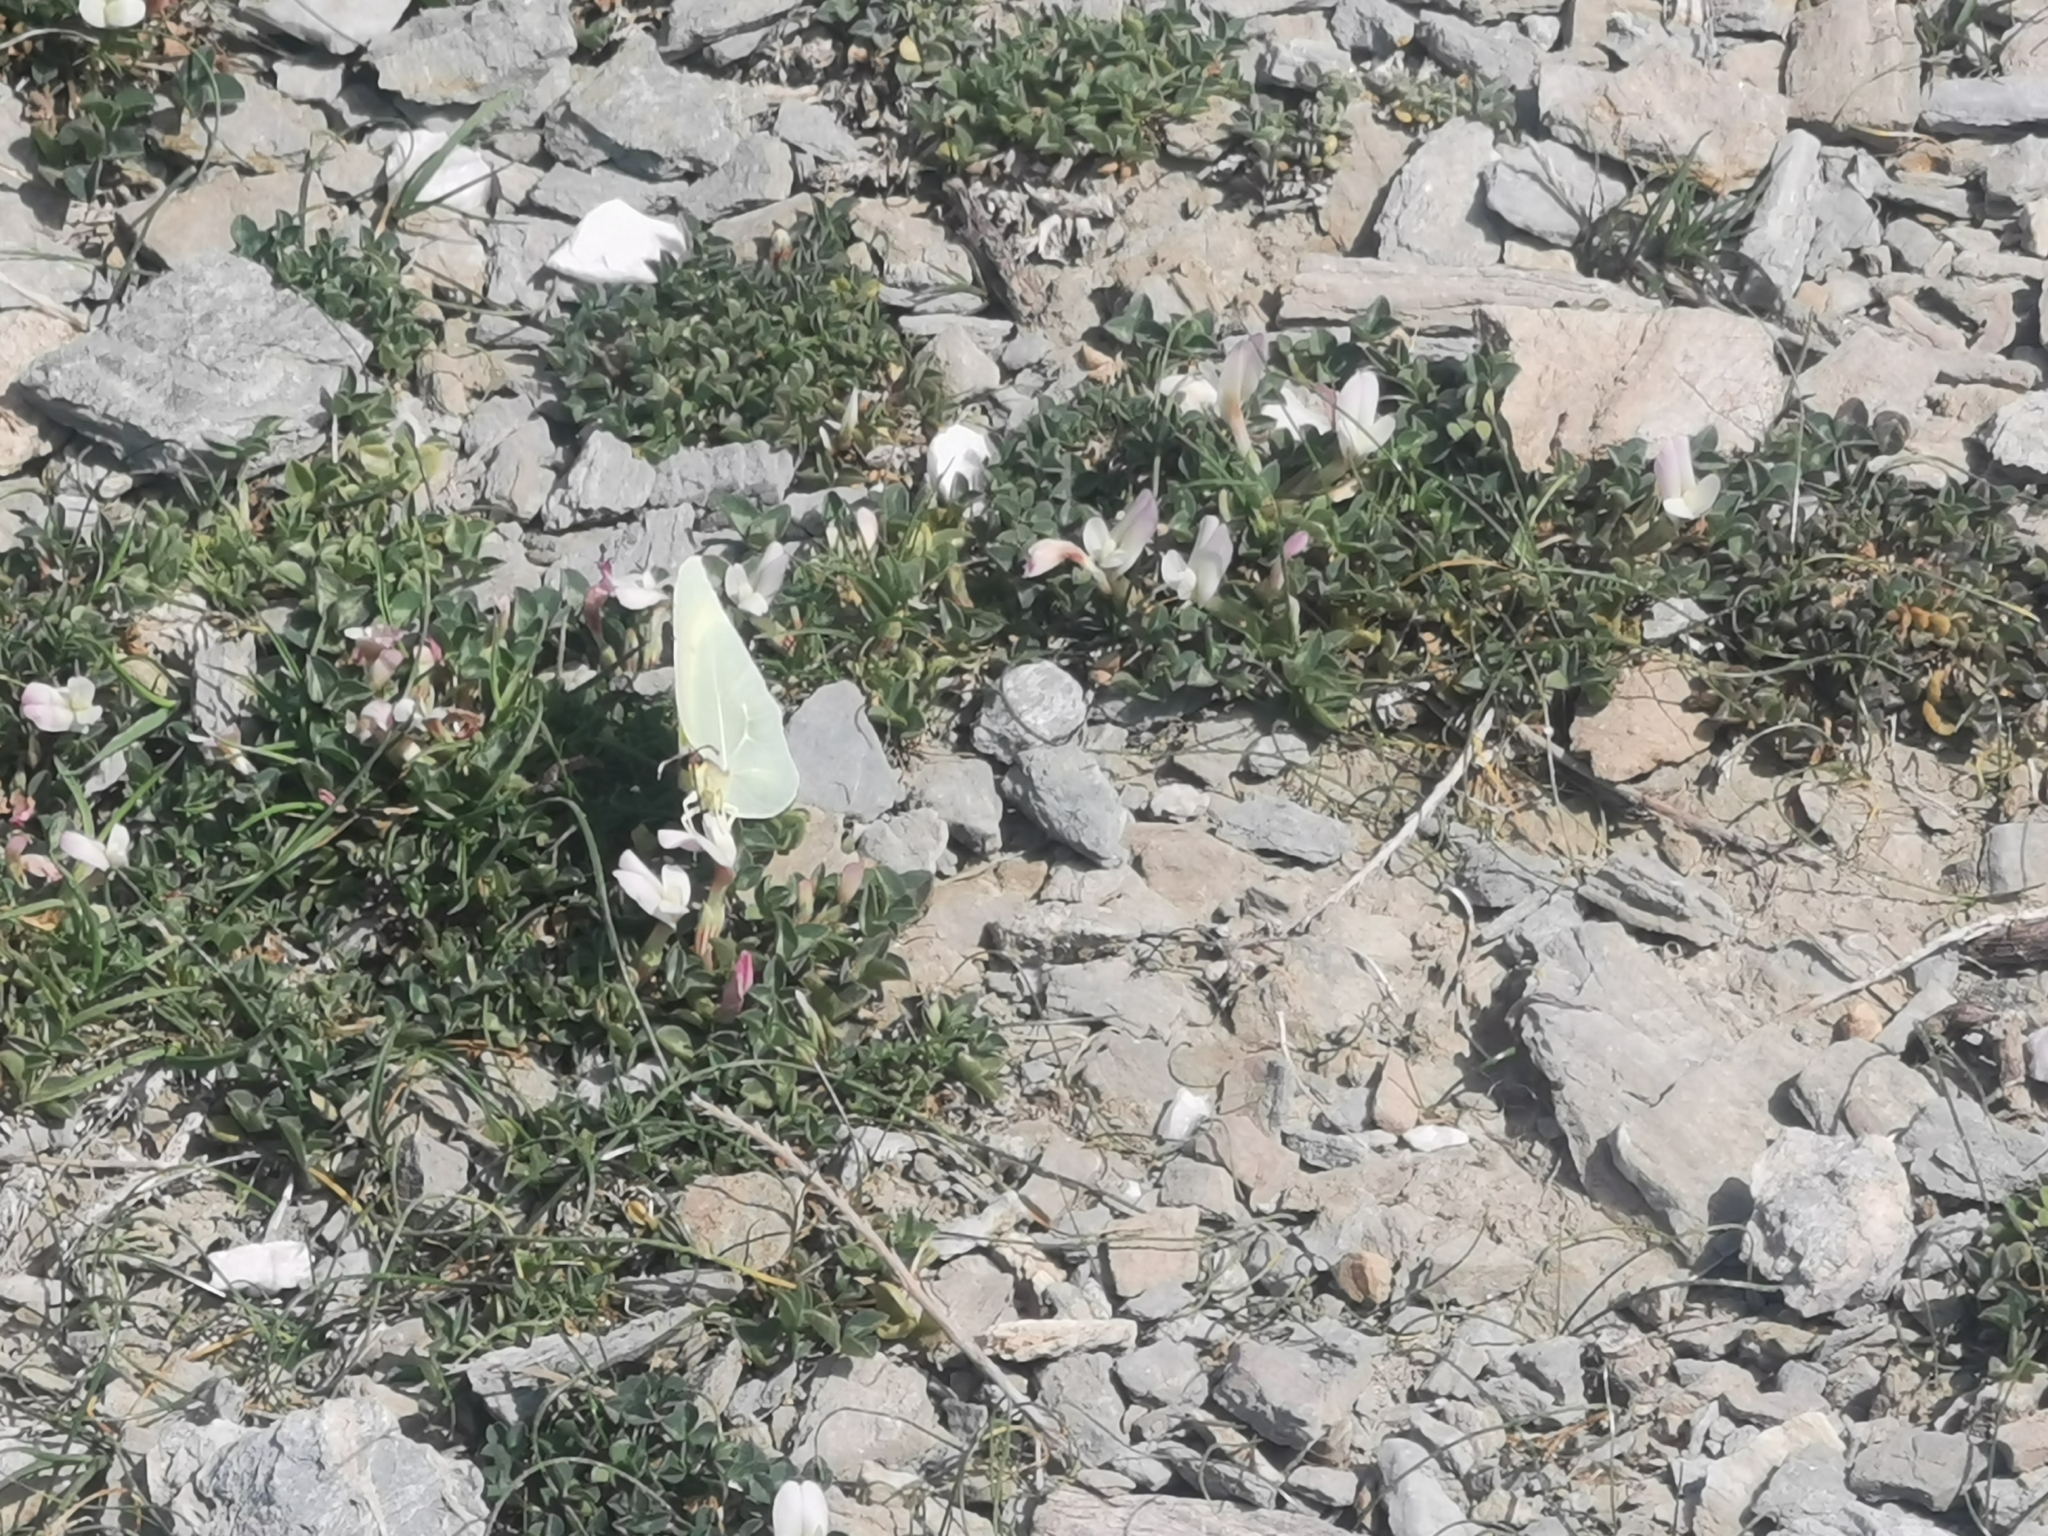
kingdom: Animalia
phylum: Arthropoda
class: Insecta
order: Lepidoptera
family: Pieridae
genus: Gonepteryx
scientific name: Gonepteryx cleopatra
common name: Cleopatra
